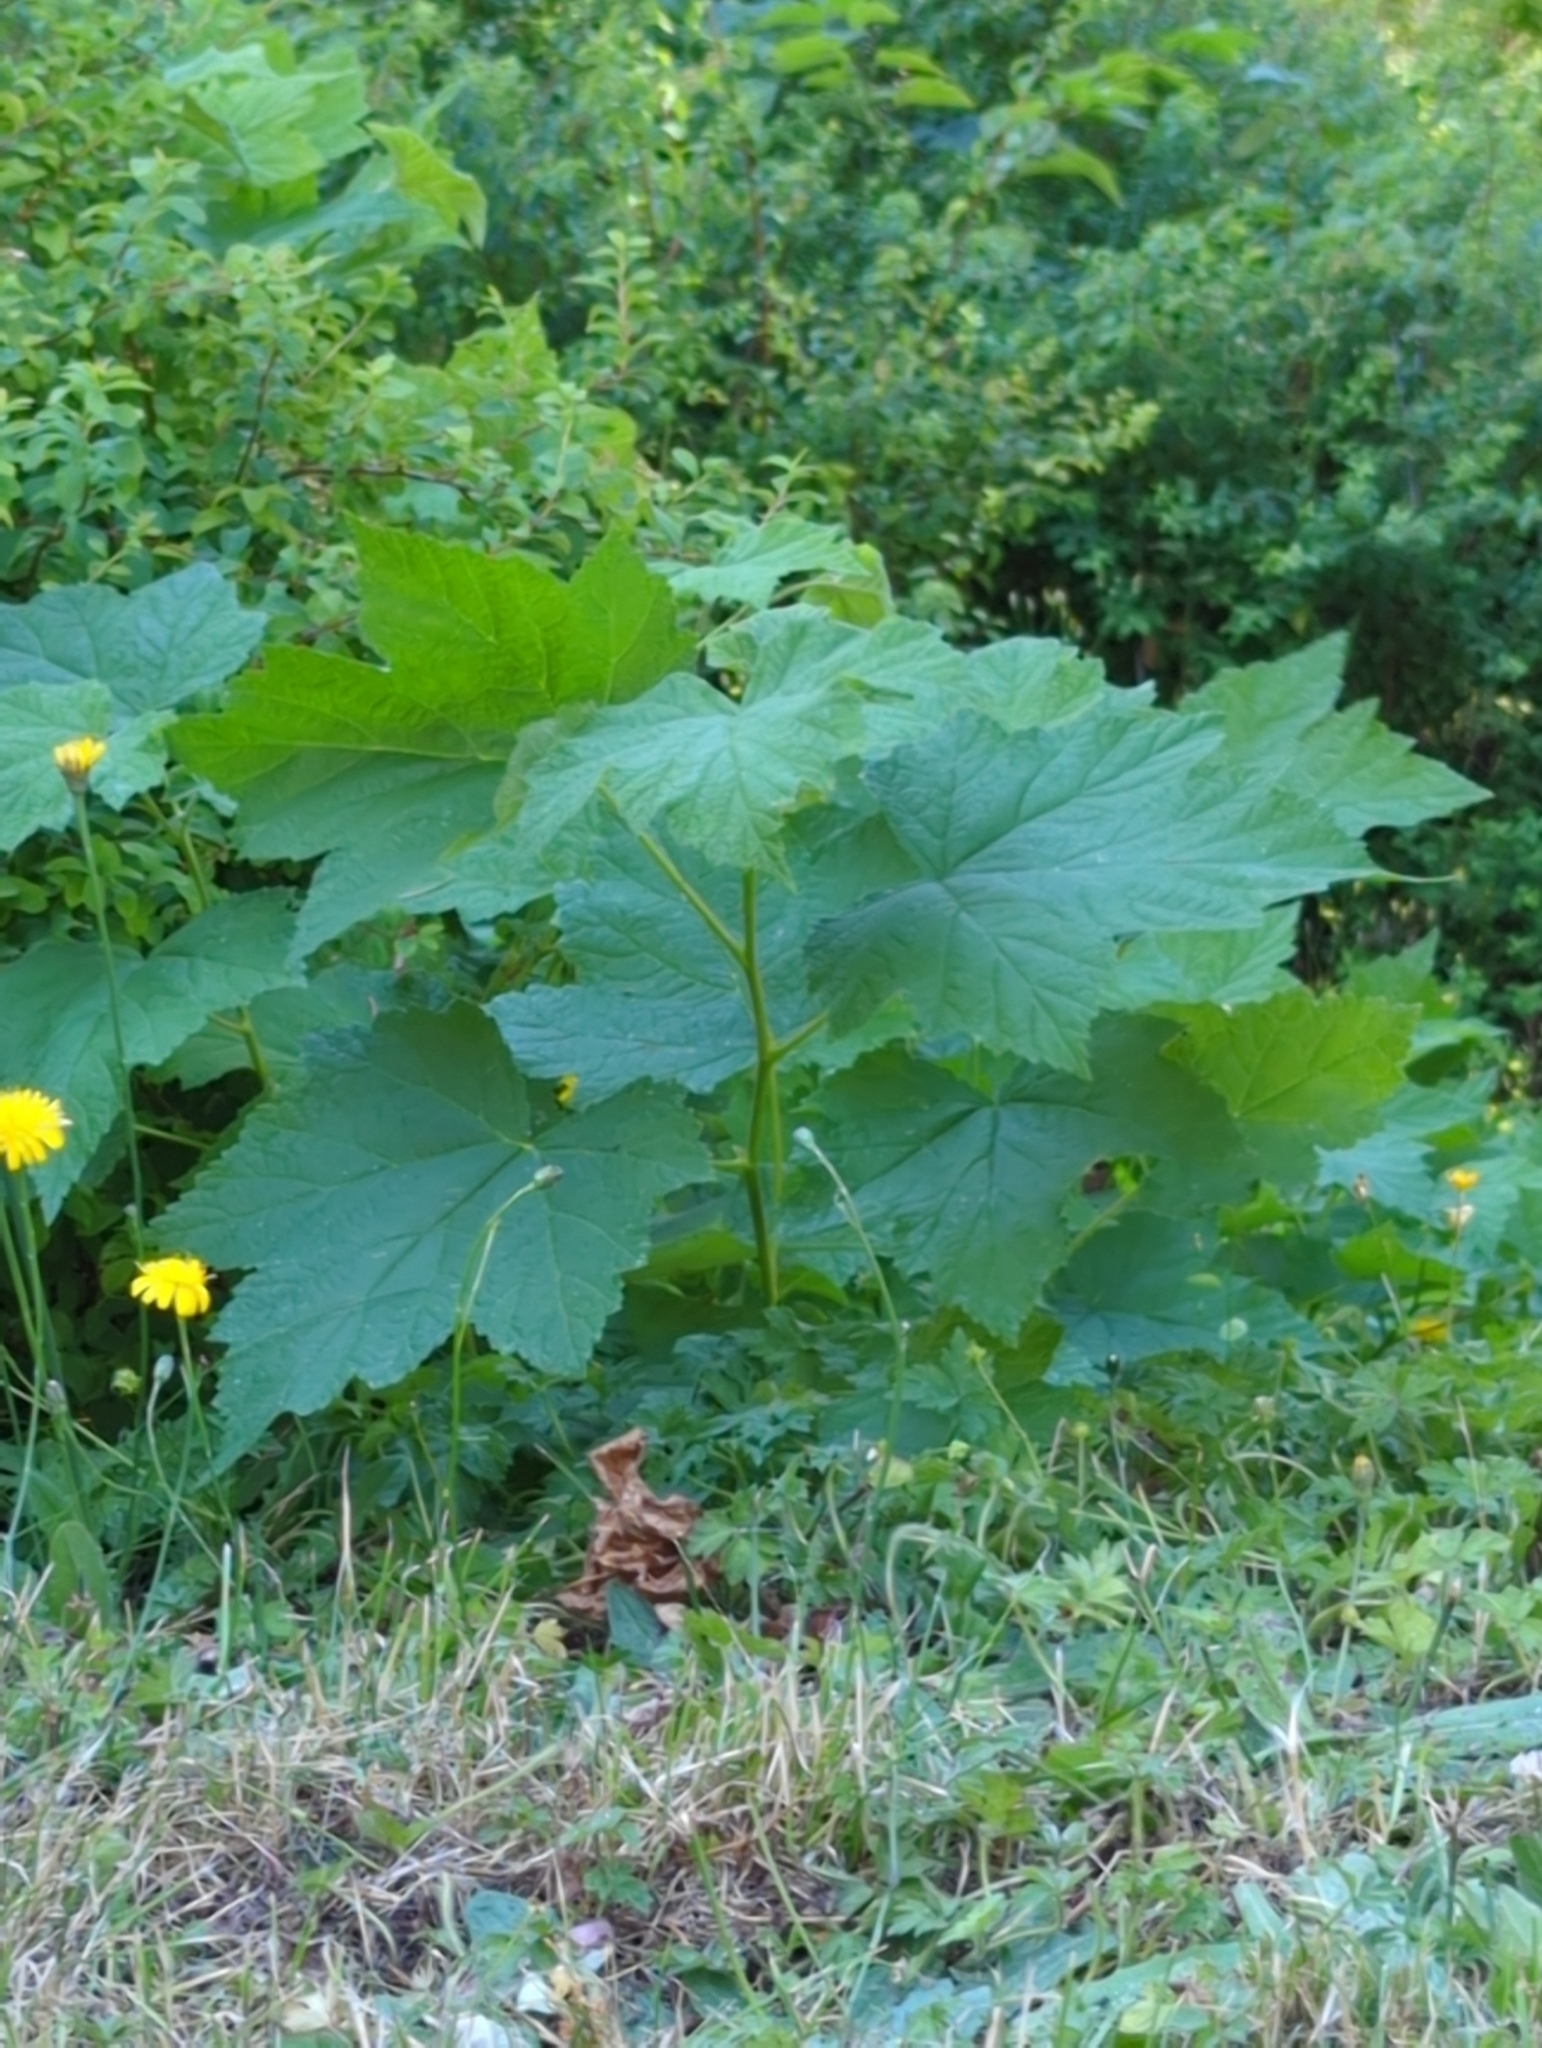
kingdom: Plantae
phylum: Tracheophyta
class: Magnoliopsida
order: Rosales
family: Rosaceae
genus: Rubus
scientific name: Rubus parviflorus
